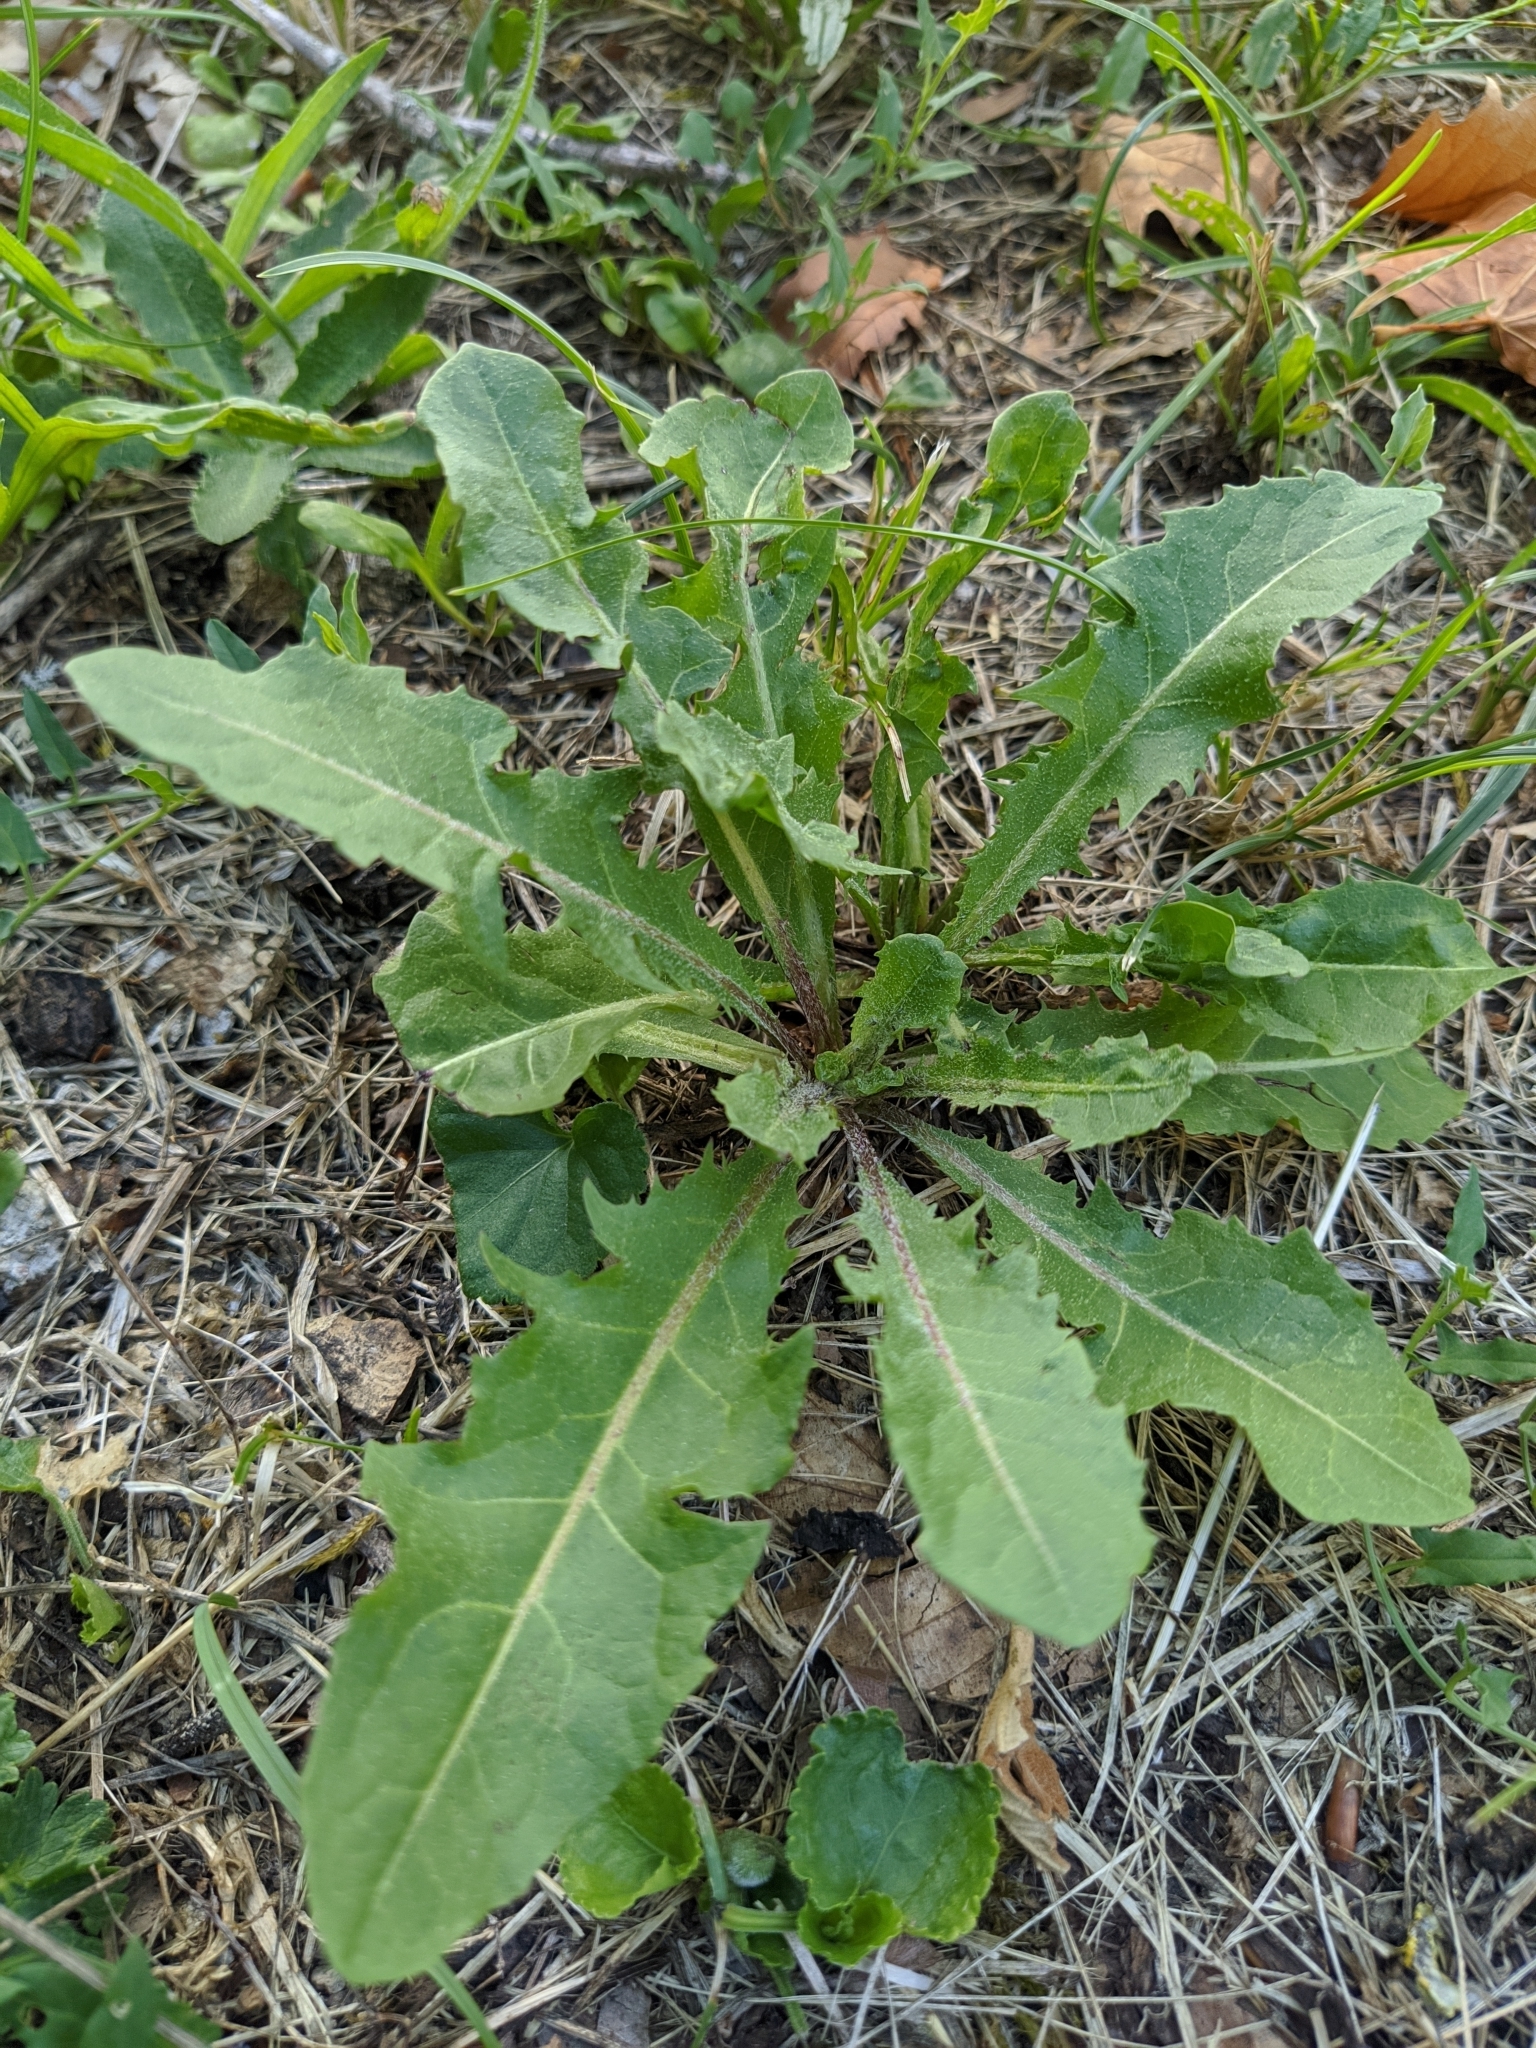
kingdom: Plantae
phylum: Tracheophyta
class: Magnoliopsida
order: Asterales
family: Asteraceae
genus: Taraxacum
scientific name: Taraxacum officinale
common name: Common dandelion
